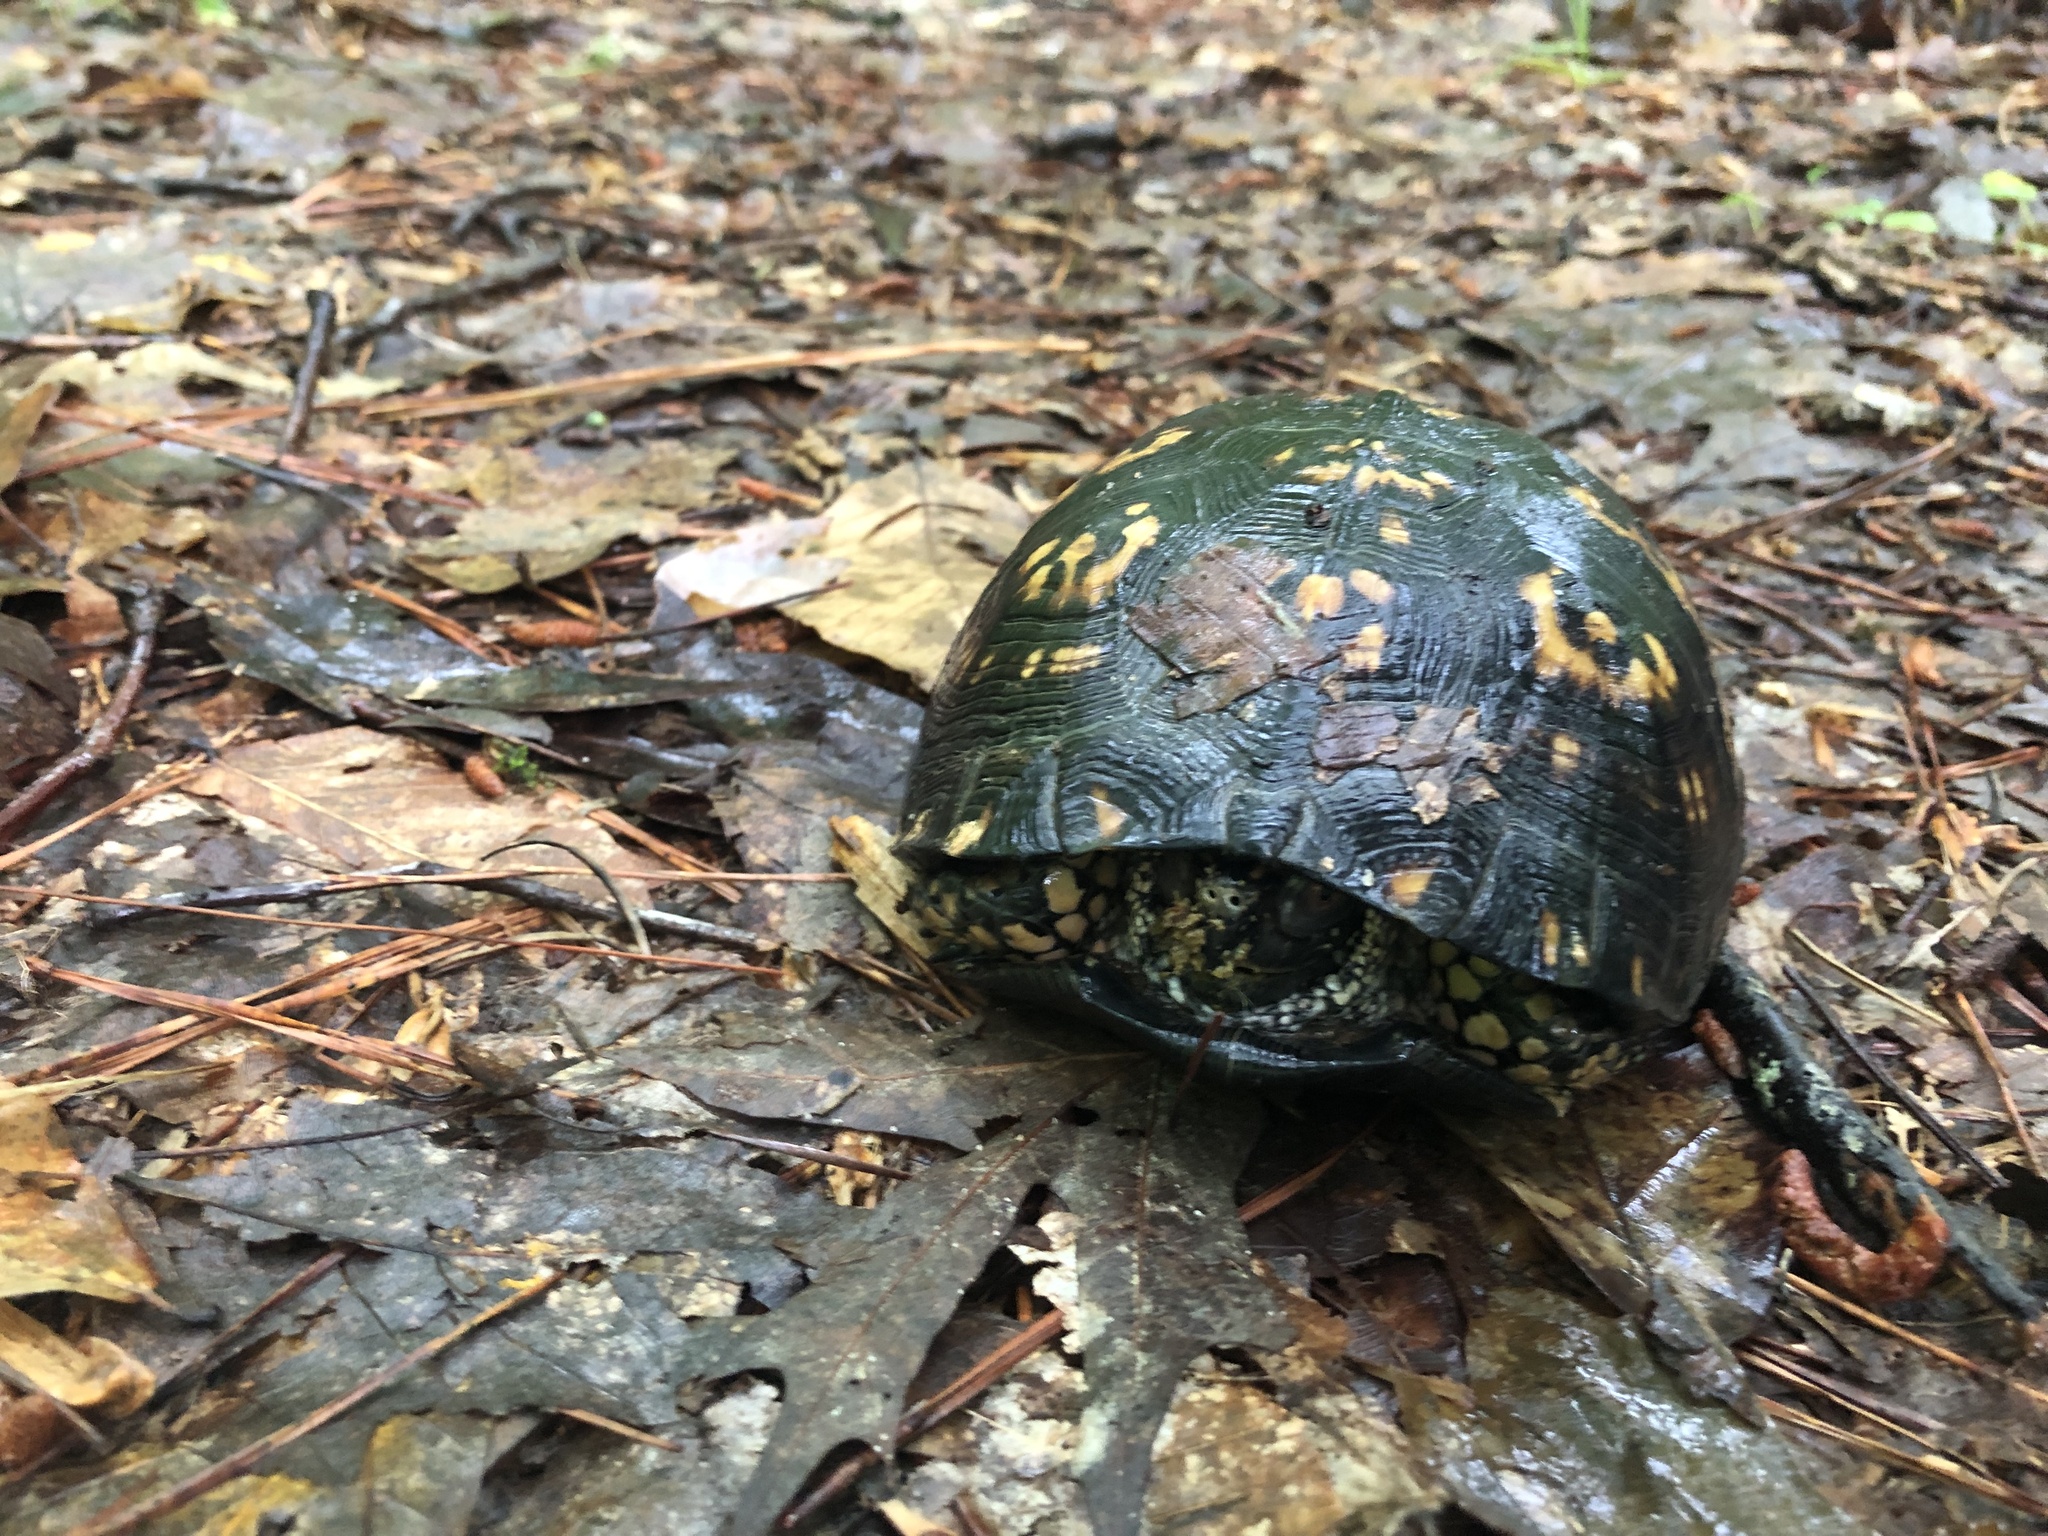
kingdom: Animalia
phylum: Chordata
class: Testudines
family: Emydidae
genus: Terrapene
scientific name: Terrapene carolina
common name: Common box turtle
